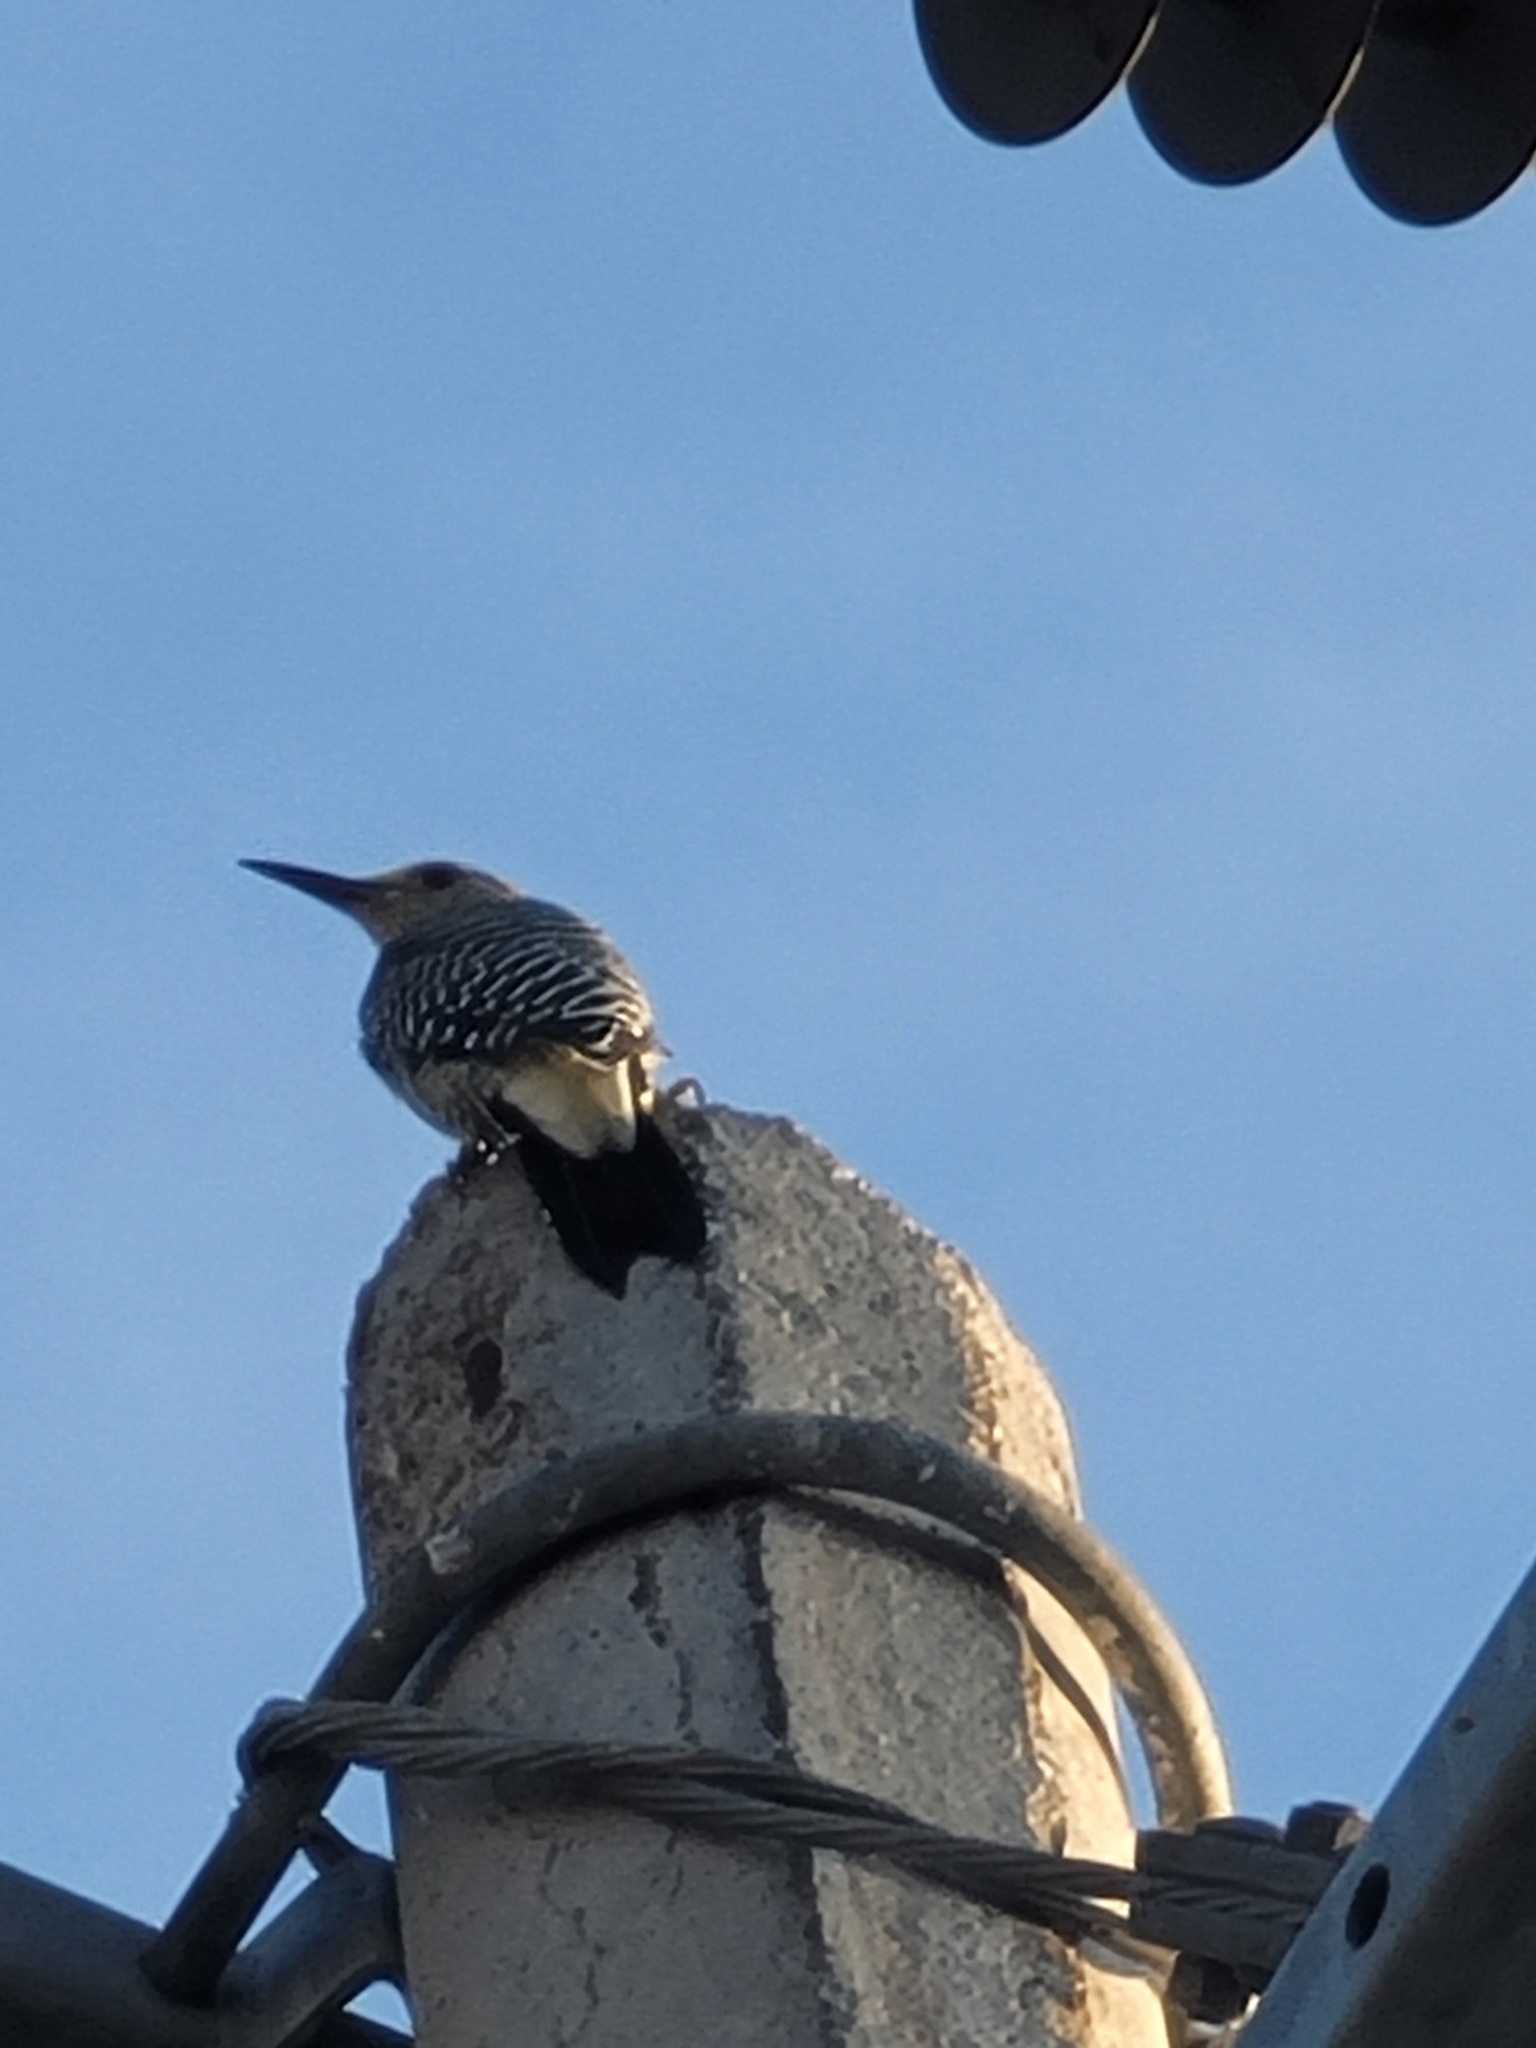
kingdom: Animalia
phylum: Chordata
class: Aves
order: Piciformes
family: Picidae
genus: Melanerpes
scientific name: Melanerpes aurifrons
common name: Golden-fronted woodpecker
